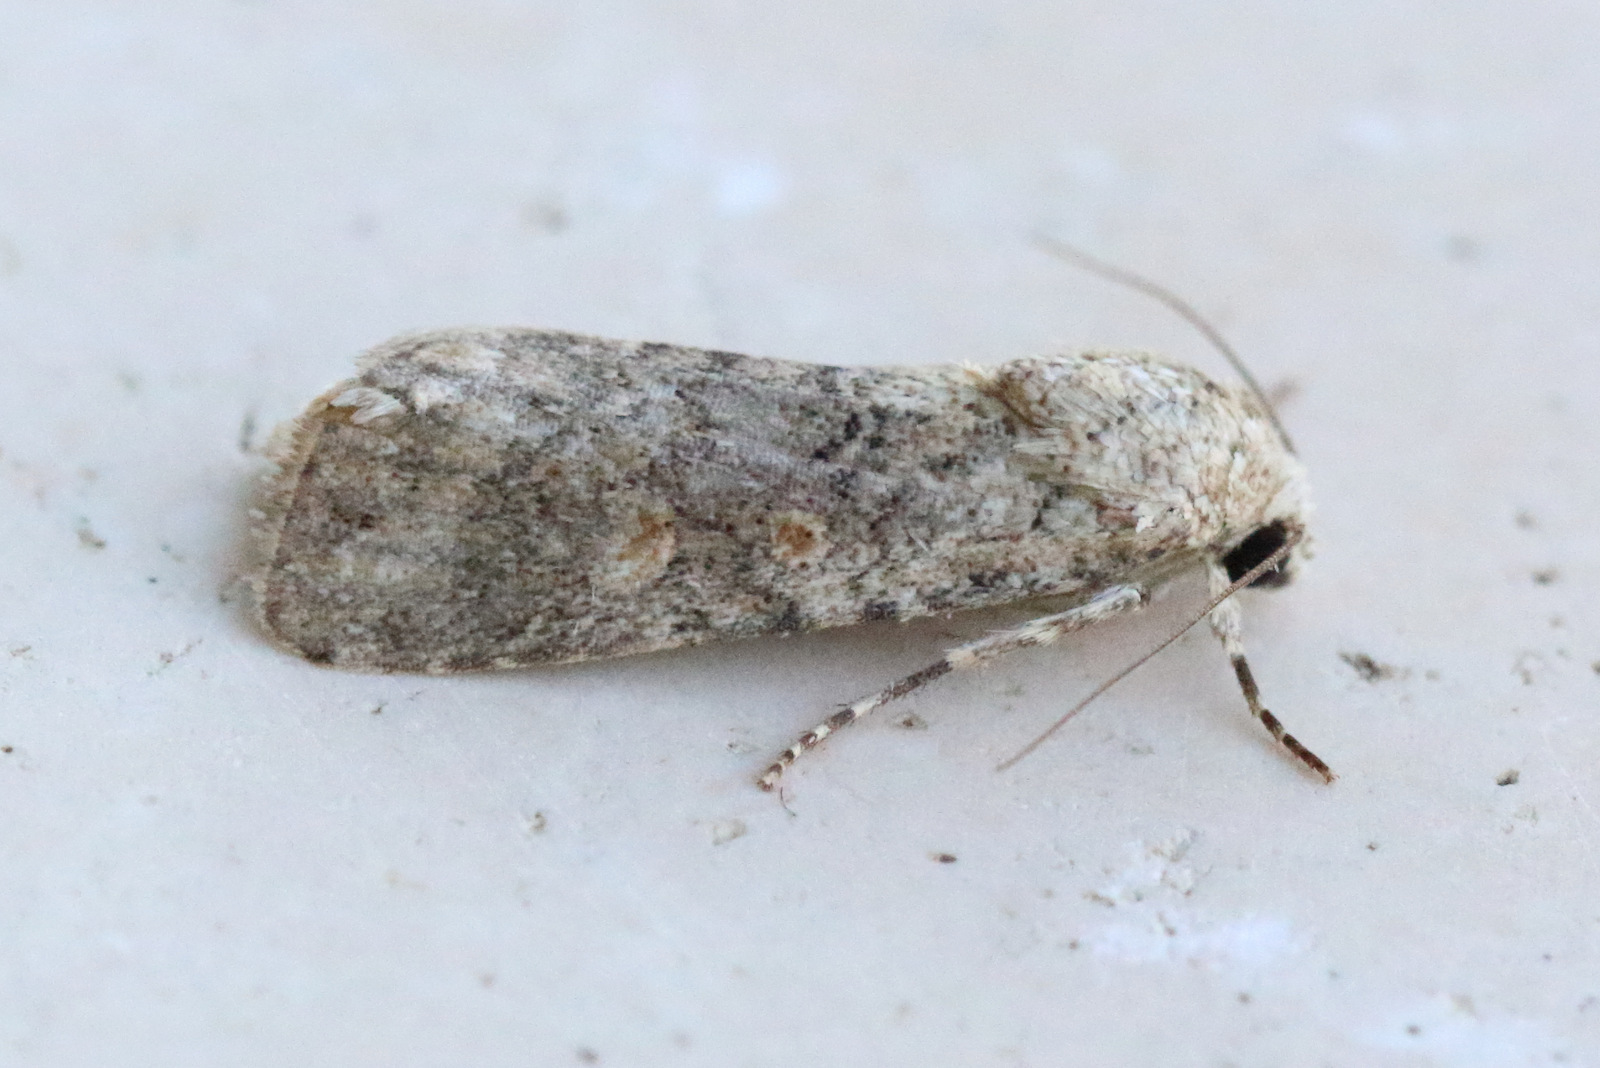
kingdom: Animalia
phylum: Arthropoda
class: Insecta
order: Lepidoptera
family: Noctuidae
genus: Spodoptera
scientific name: Spodoptera exigua
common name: Beet armyworm
